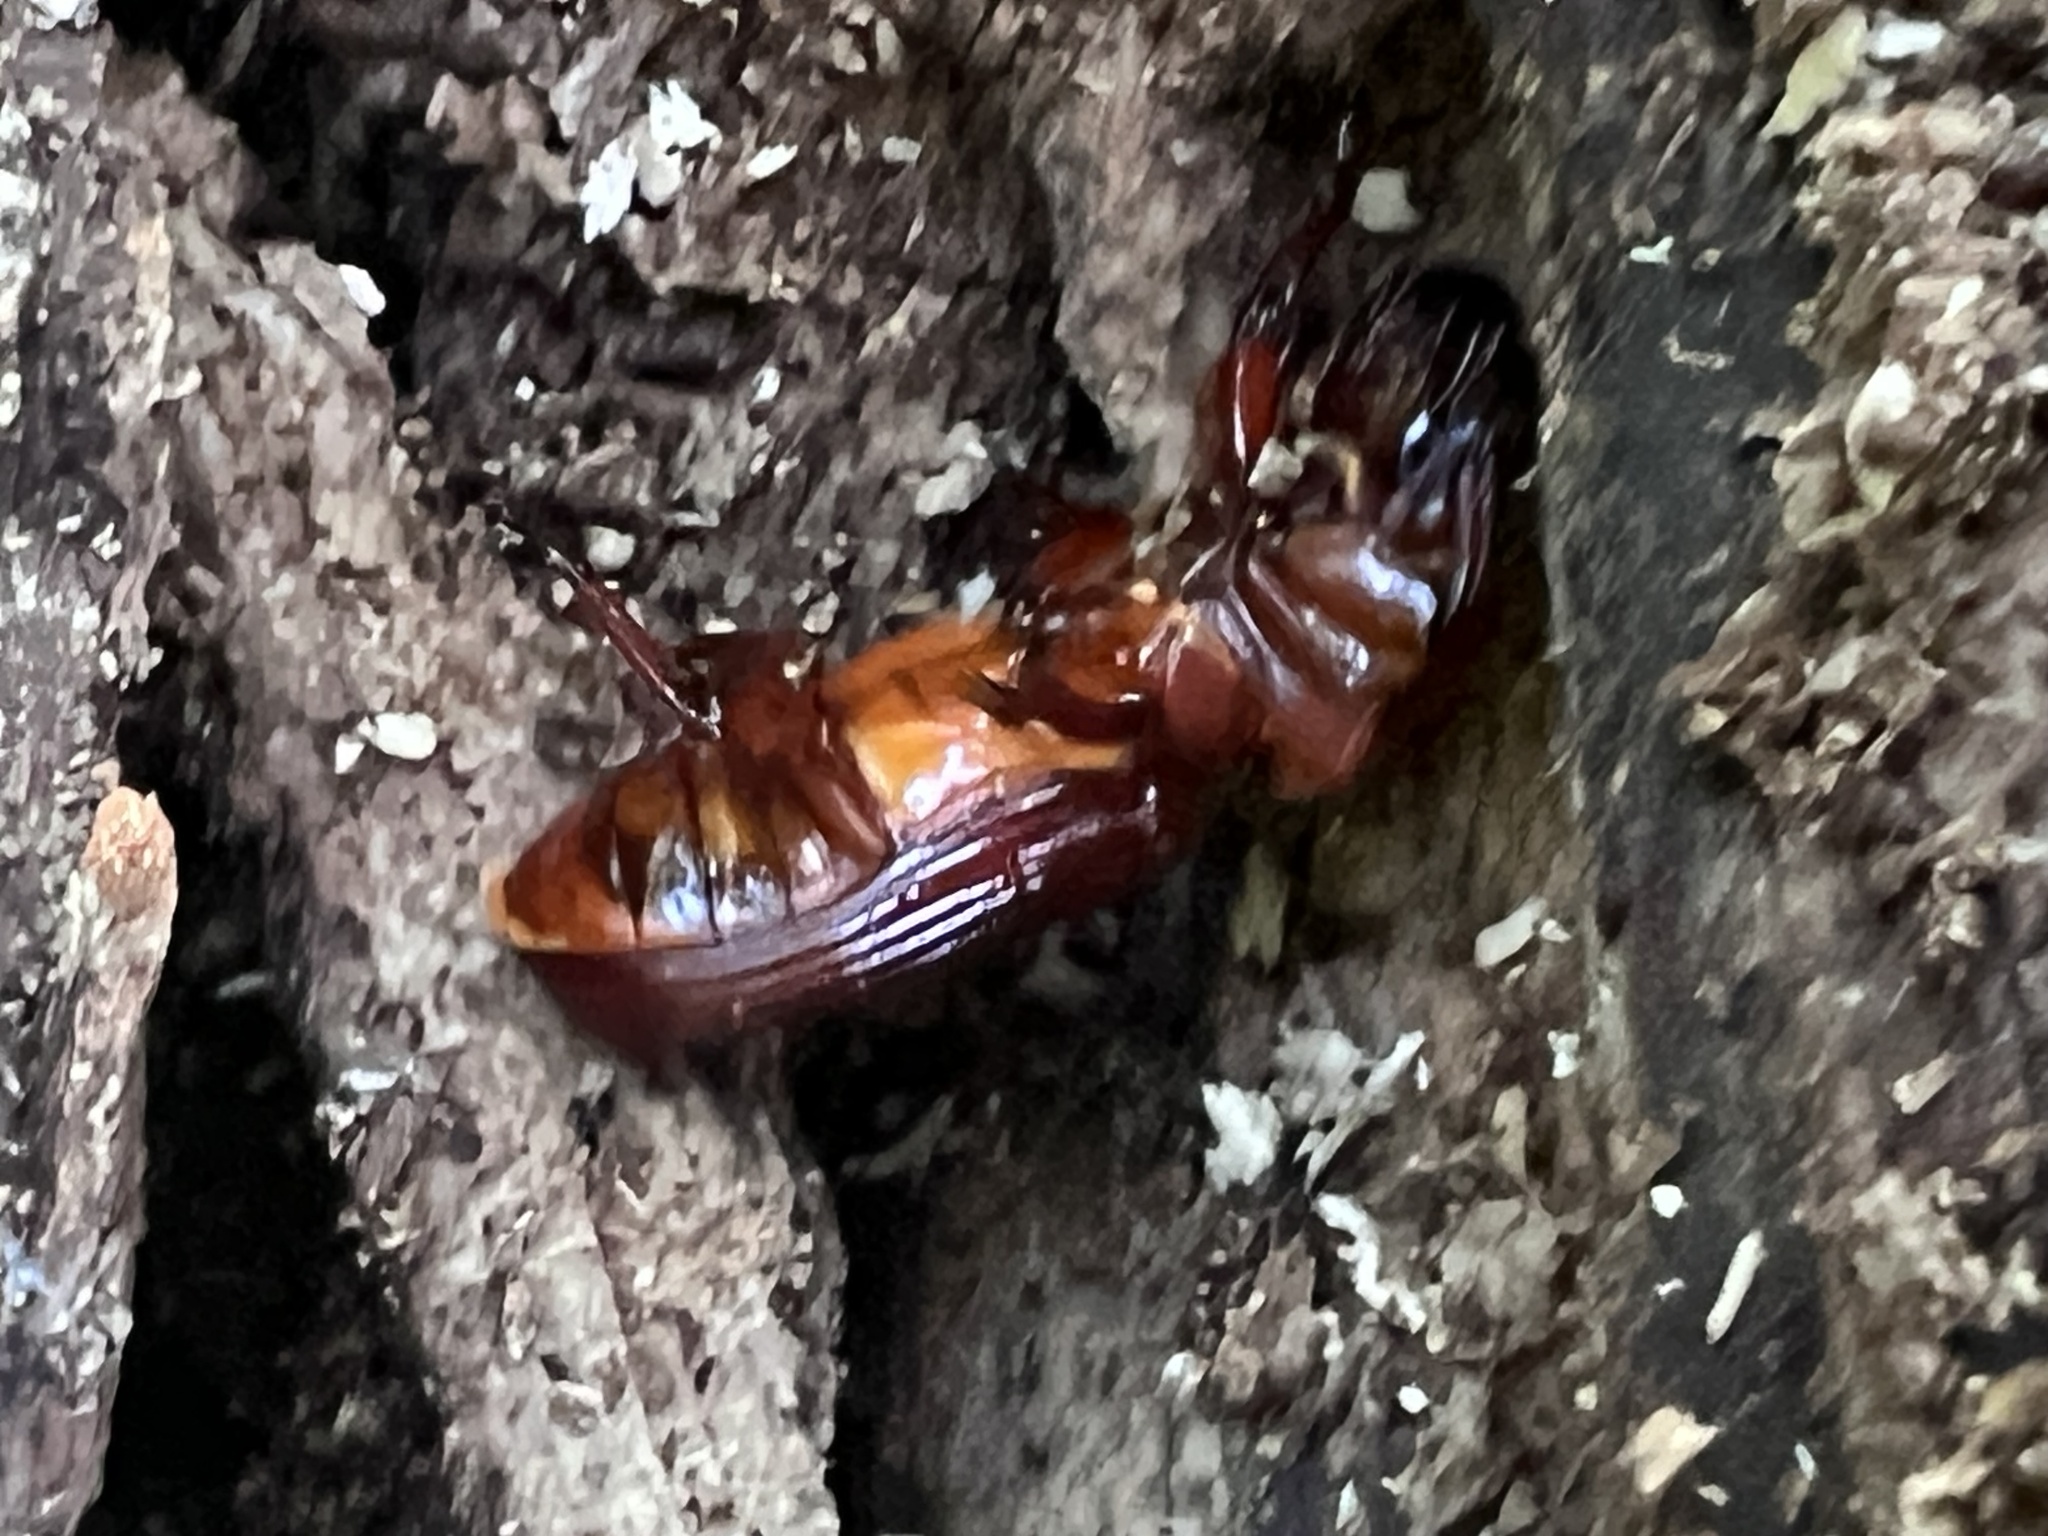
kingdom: Animalia
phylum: Arthropoda
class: Insecta
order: Coleoptera
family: Passalidae
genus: Odontotaenius
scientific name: Odontotaenius disjunctus
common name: Patent leather beetle
